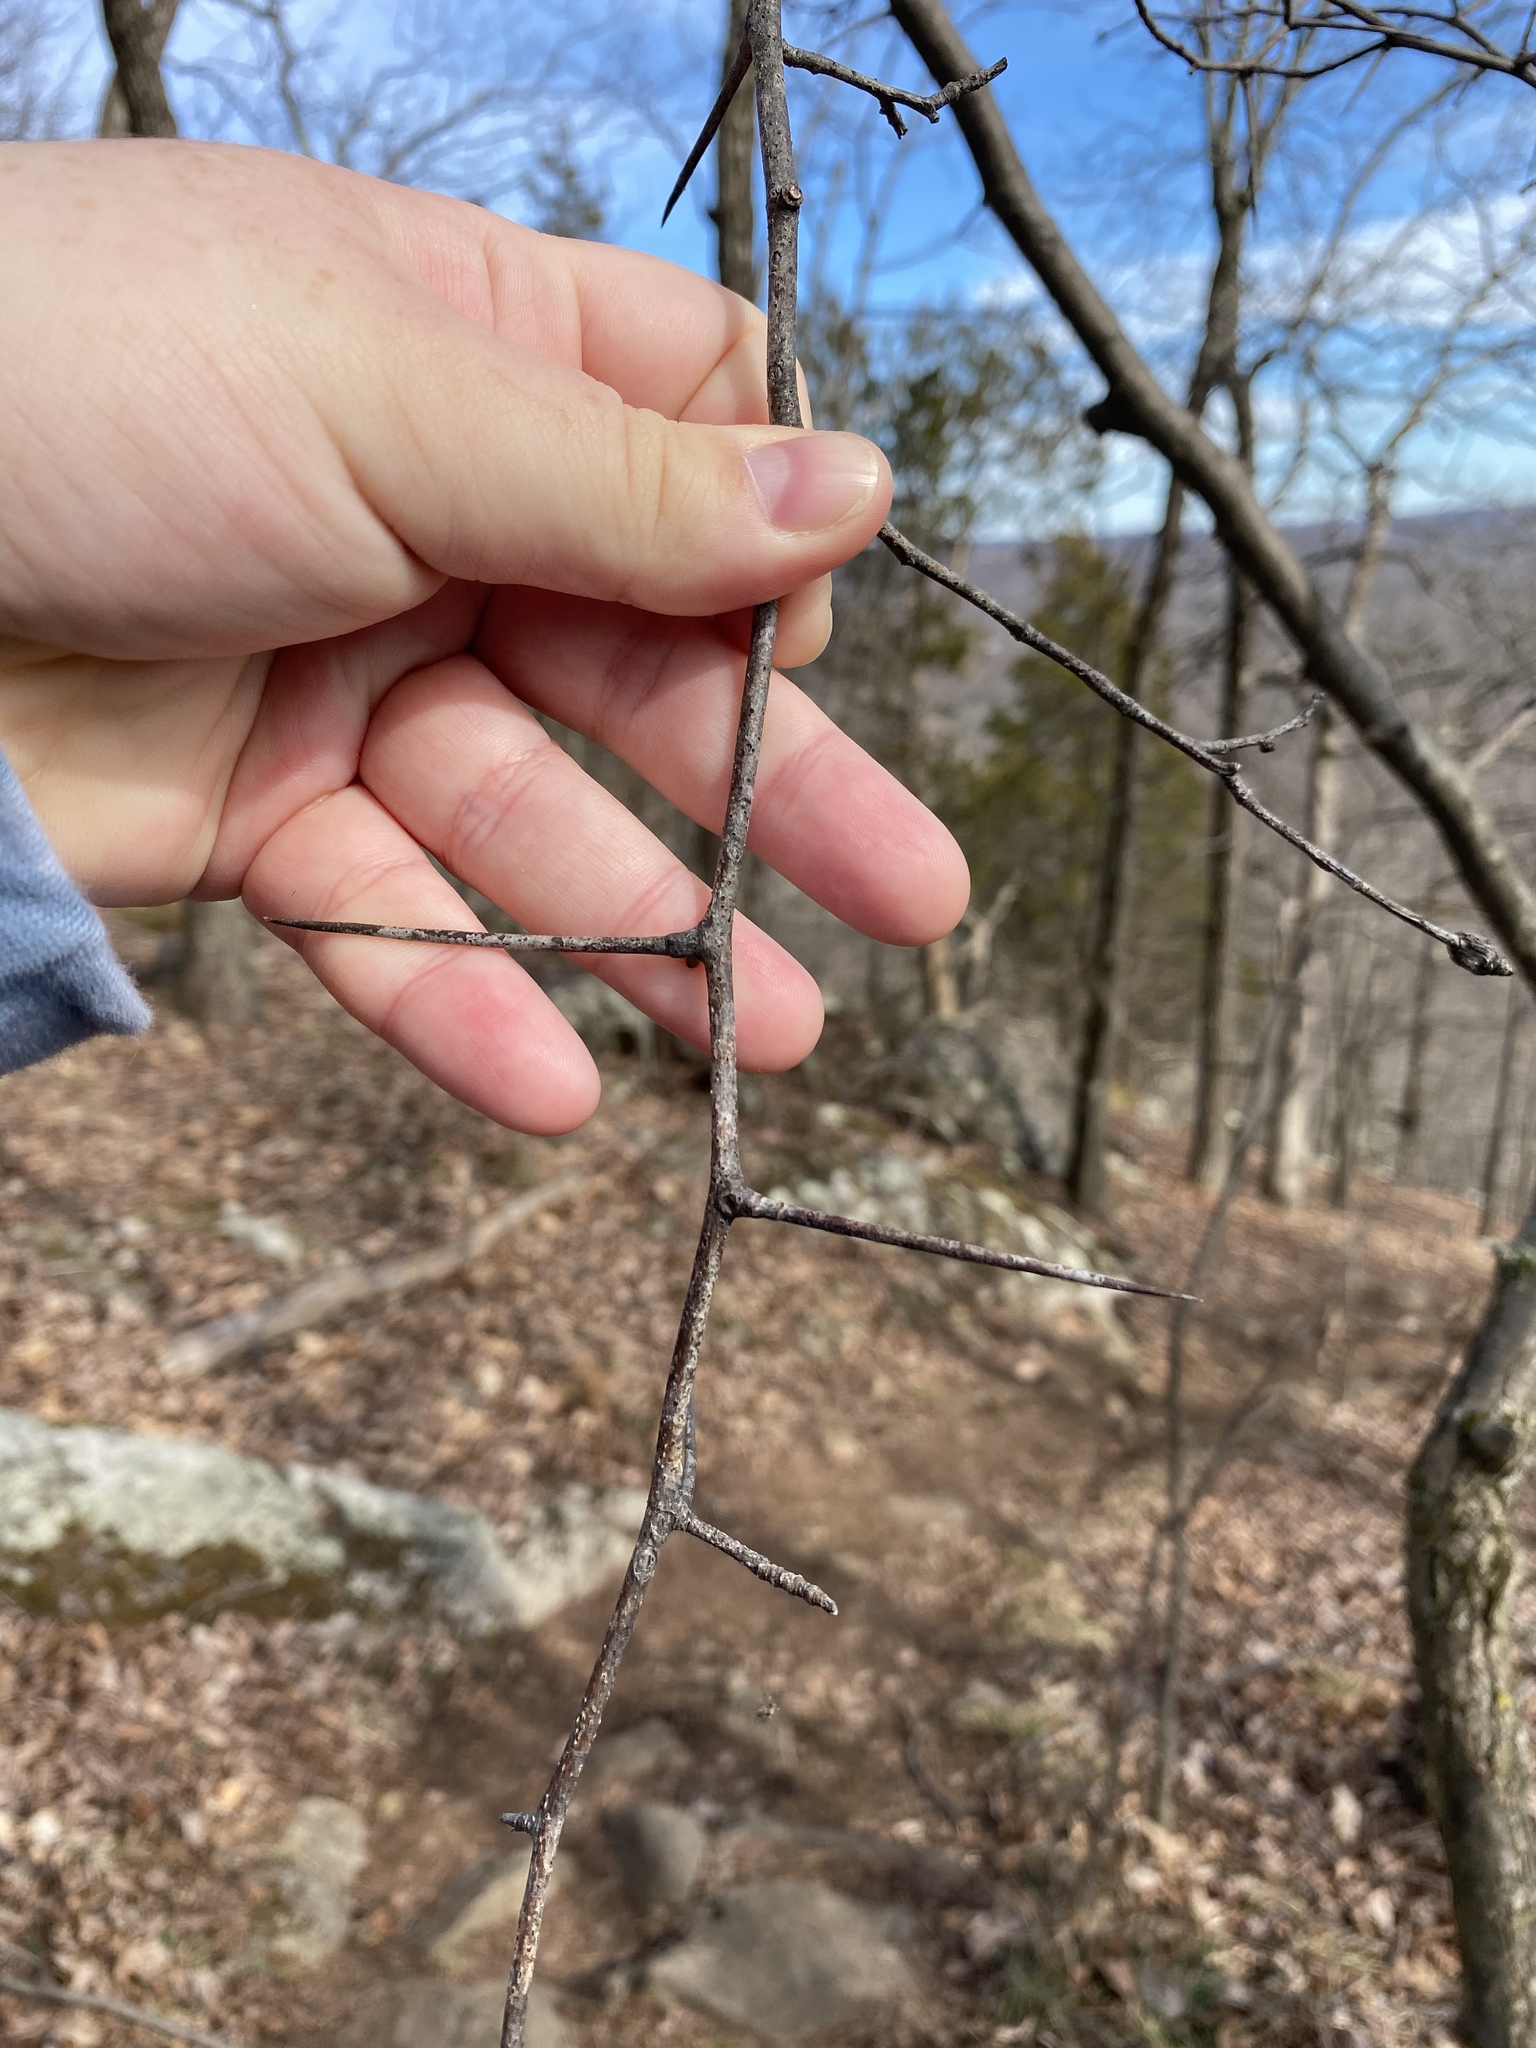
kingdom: Plantae
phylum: Tracheophyta
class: Magnoliopsida
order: Rosales
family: Rosaceae
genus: Crataegus
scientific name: Crataegus
